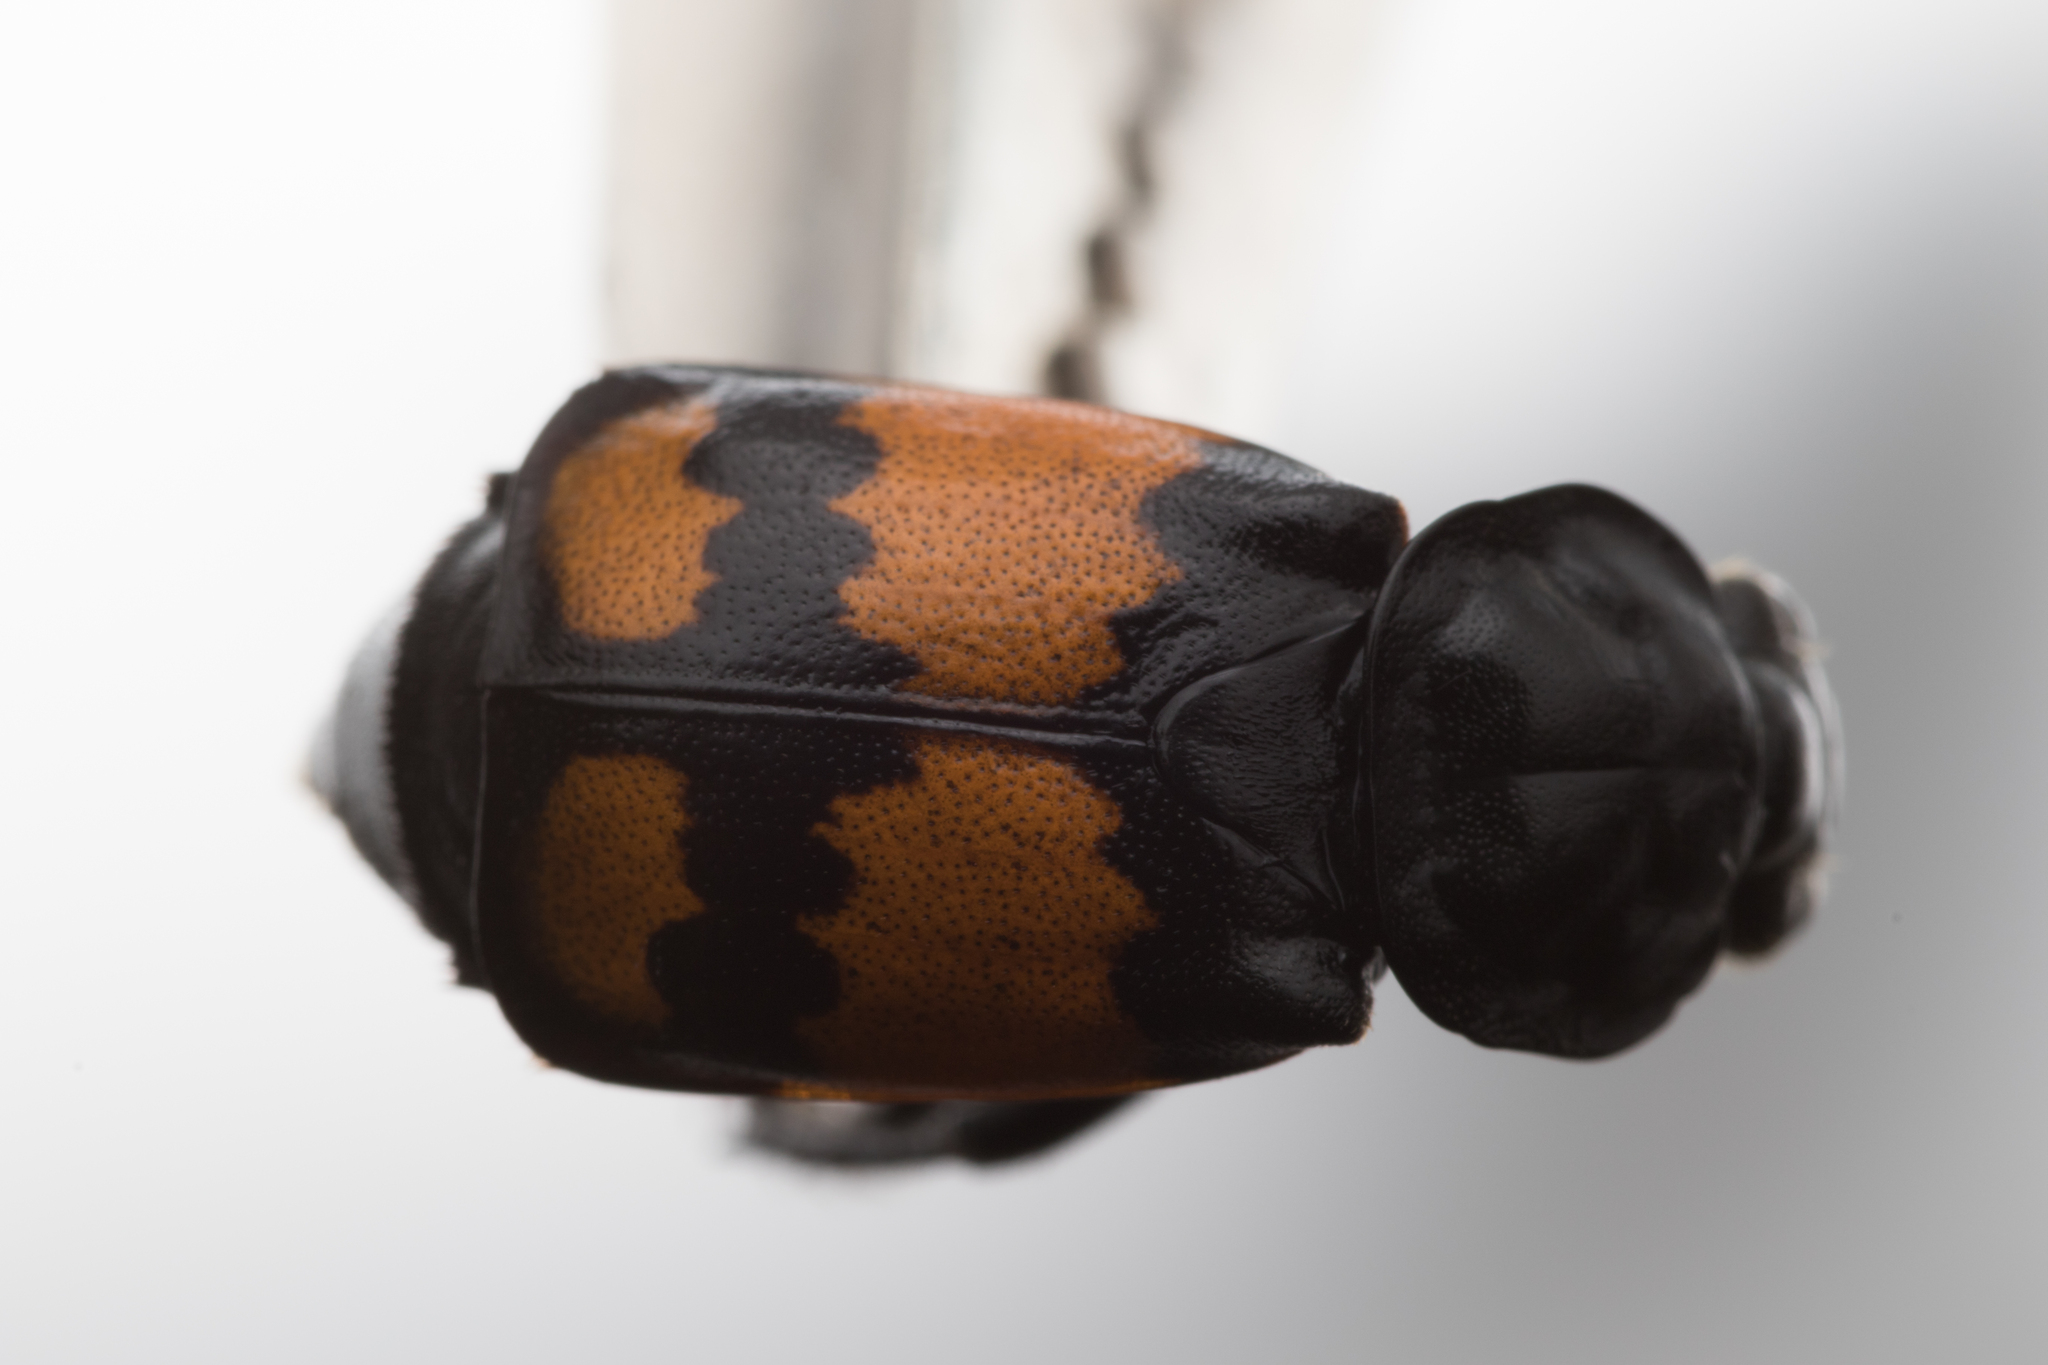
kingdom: Animalia
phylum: Arthropoda
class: Insecta
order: Coleoptera
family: Staphylinidae
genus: Nicrophorus
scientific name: Nicrophorus vespilloides
